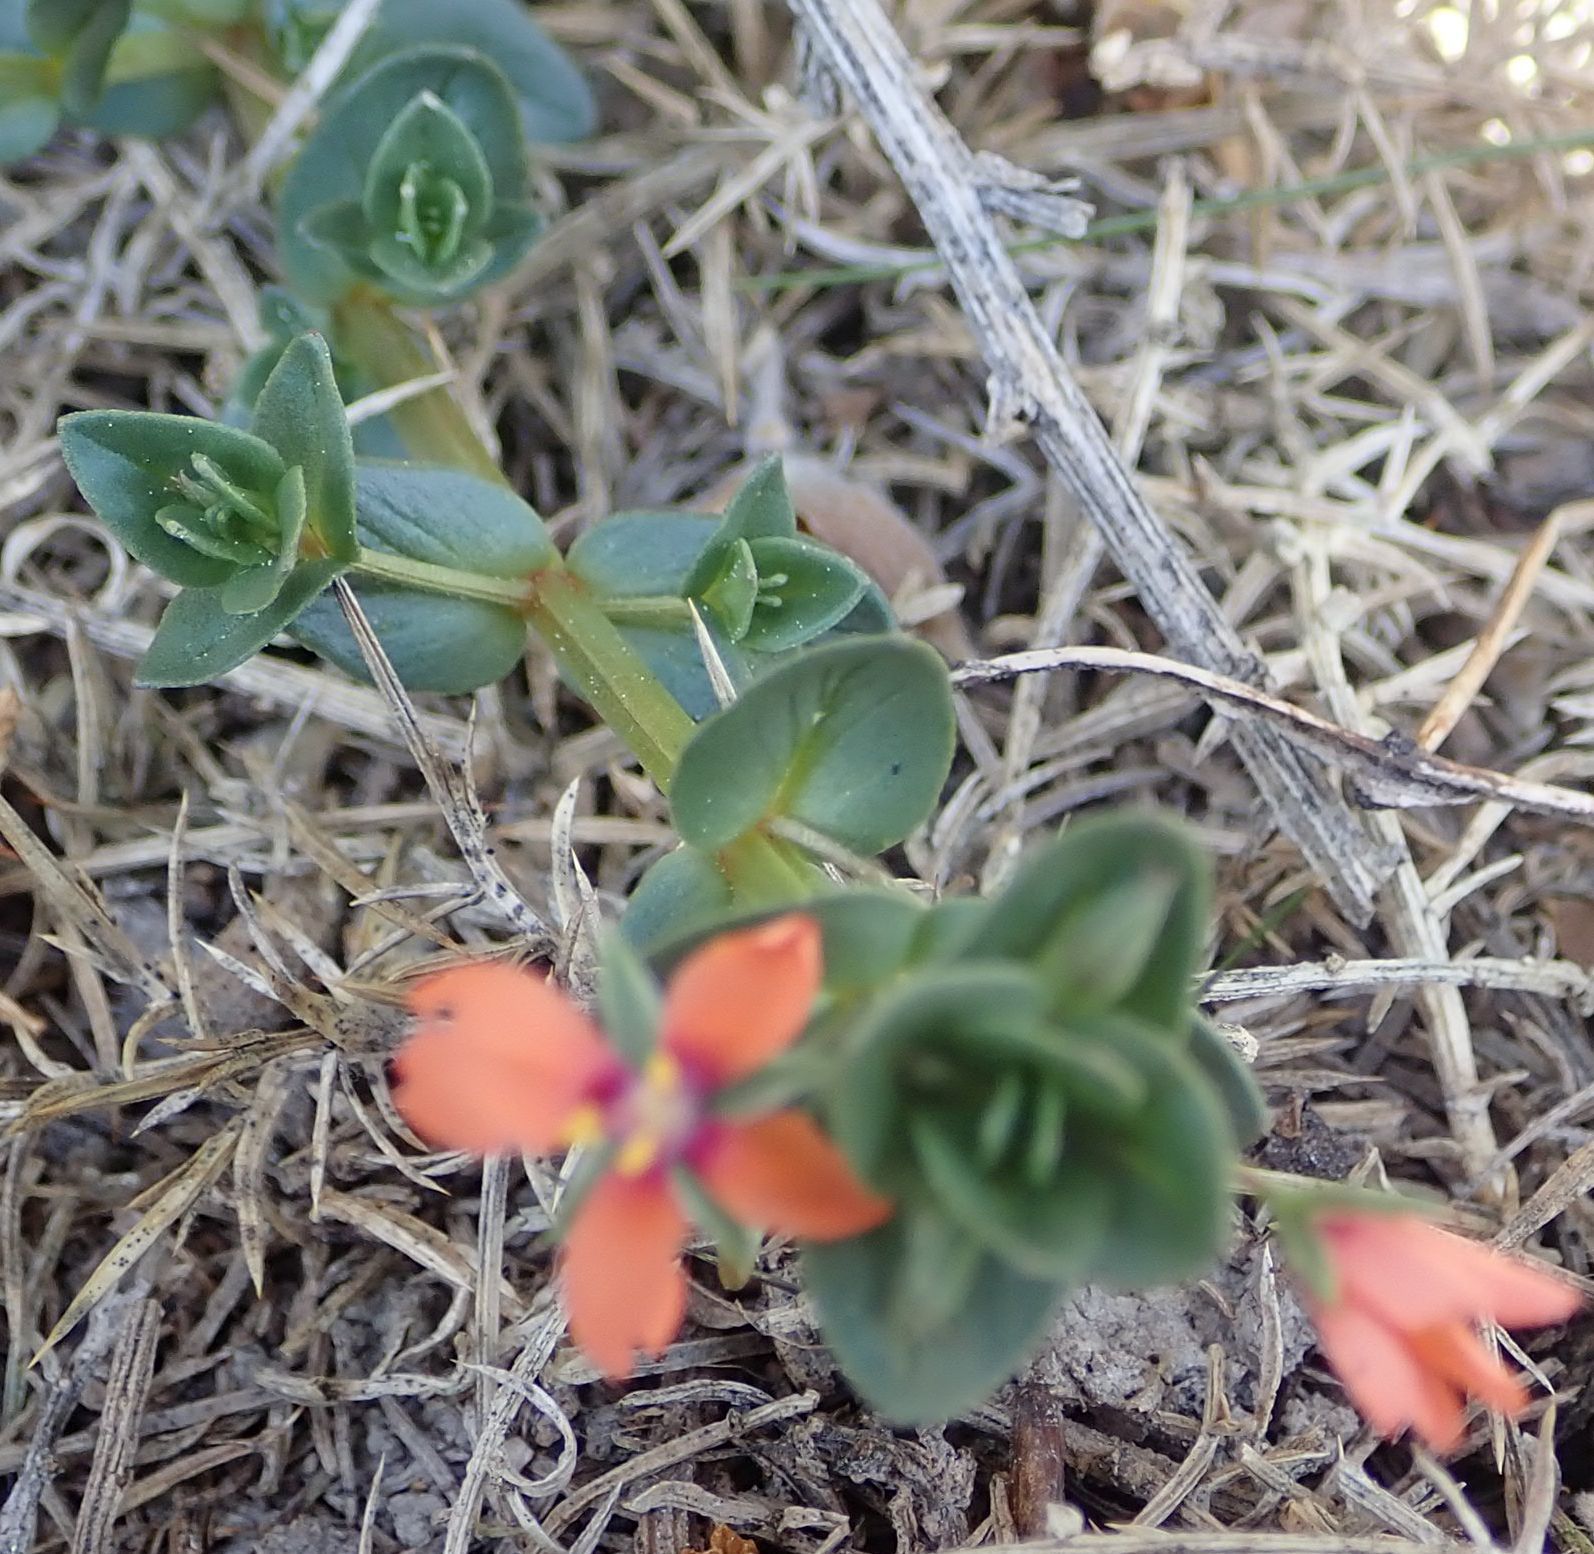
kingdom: Plantae
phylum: Tracheophyta
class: Magnoliopsida
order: Ericales
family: Primulaceae
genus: Lysimachia
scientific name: Lysimachia arvensis
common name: Scarlet pimpernel
